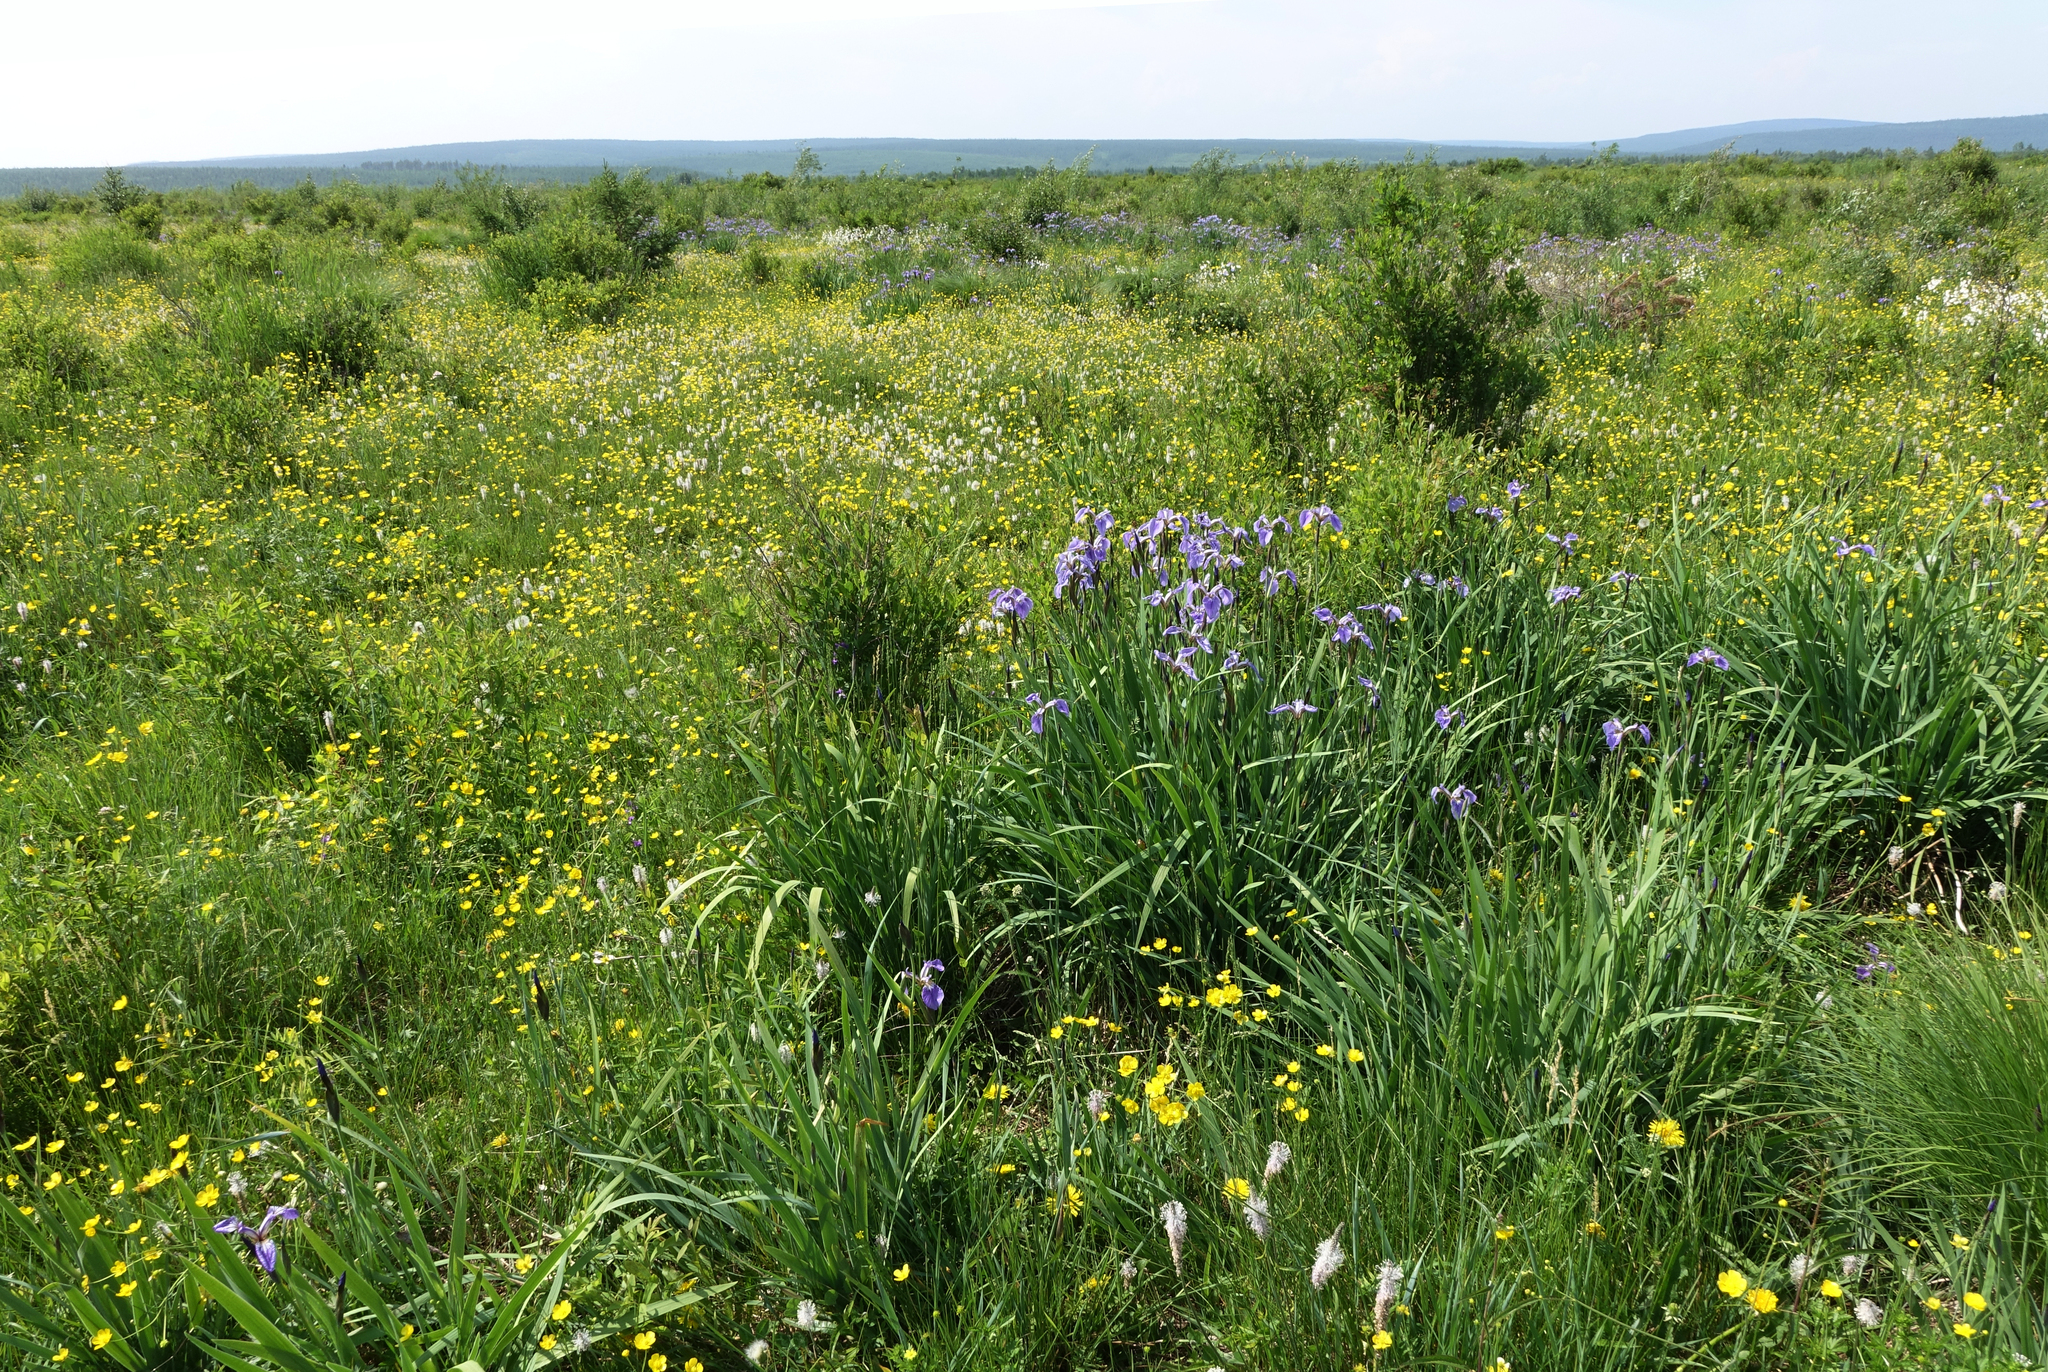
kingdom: Plantae
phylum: Tracheophyta
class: Liliopsida
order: Asparagales
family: Iridaceae
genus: Iris
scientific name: Iris setosa
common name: Arctic blue flag
